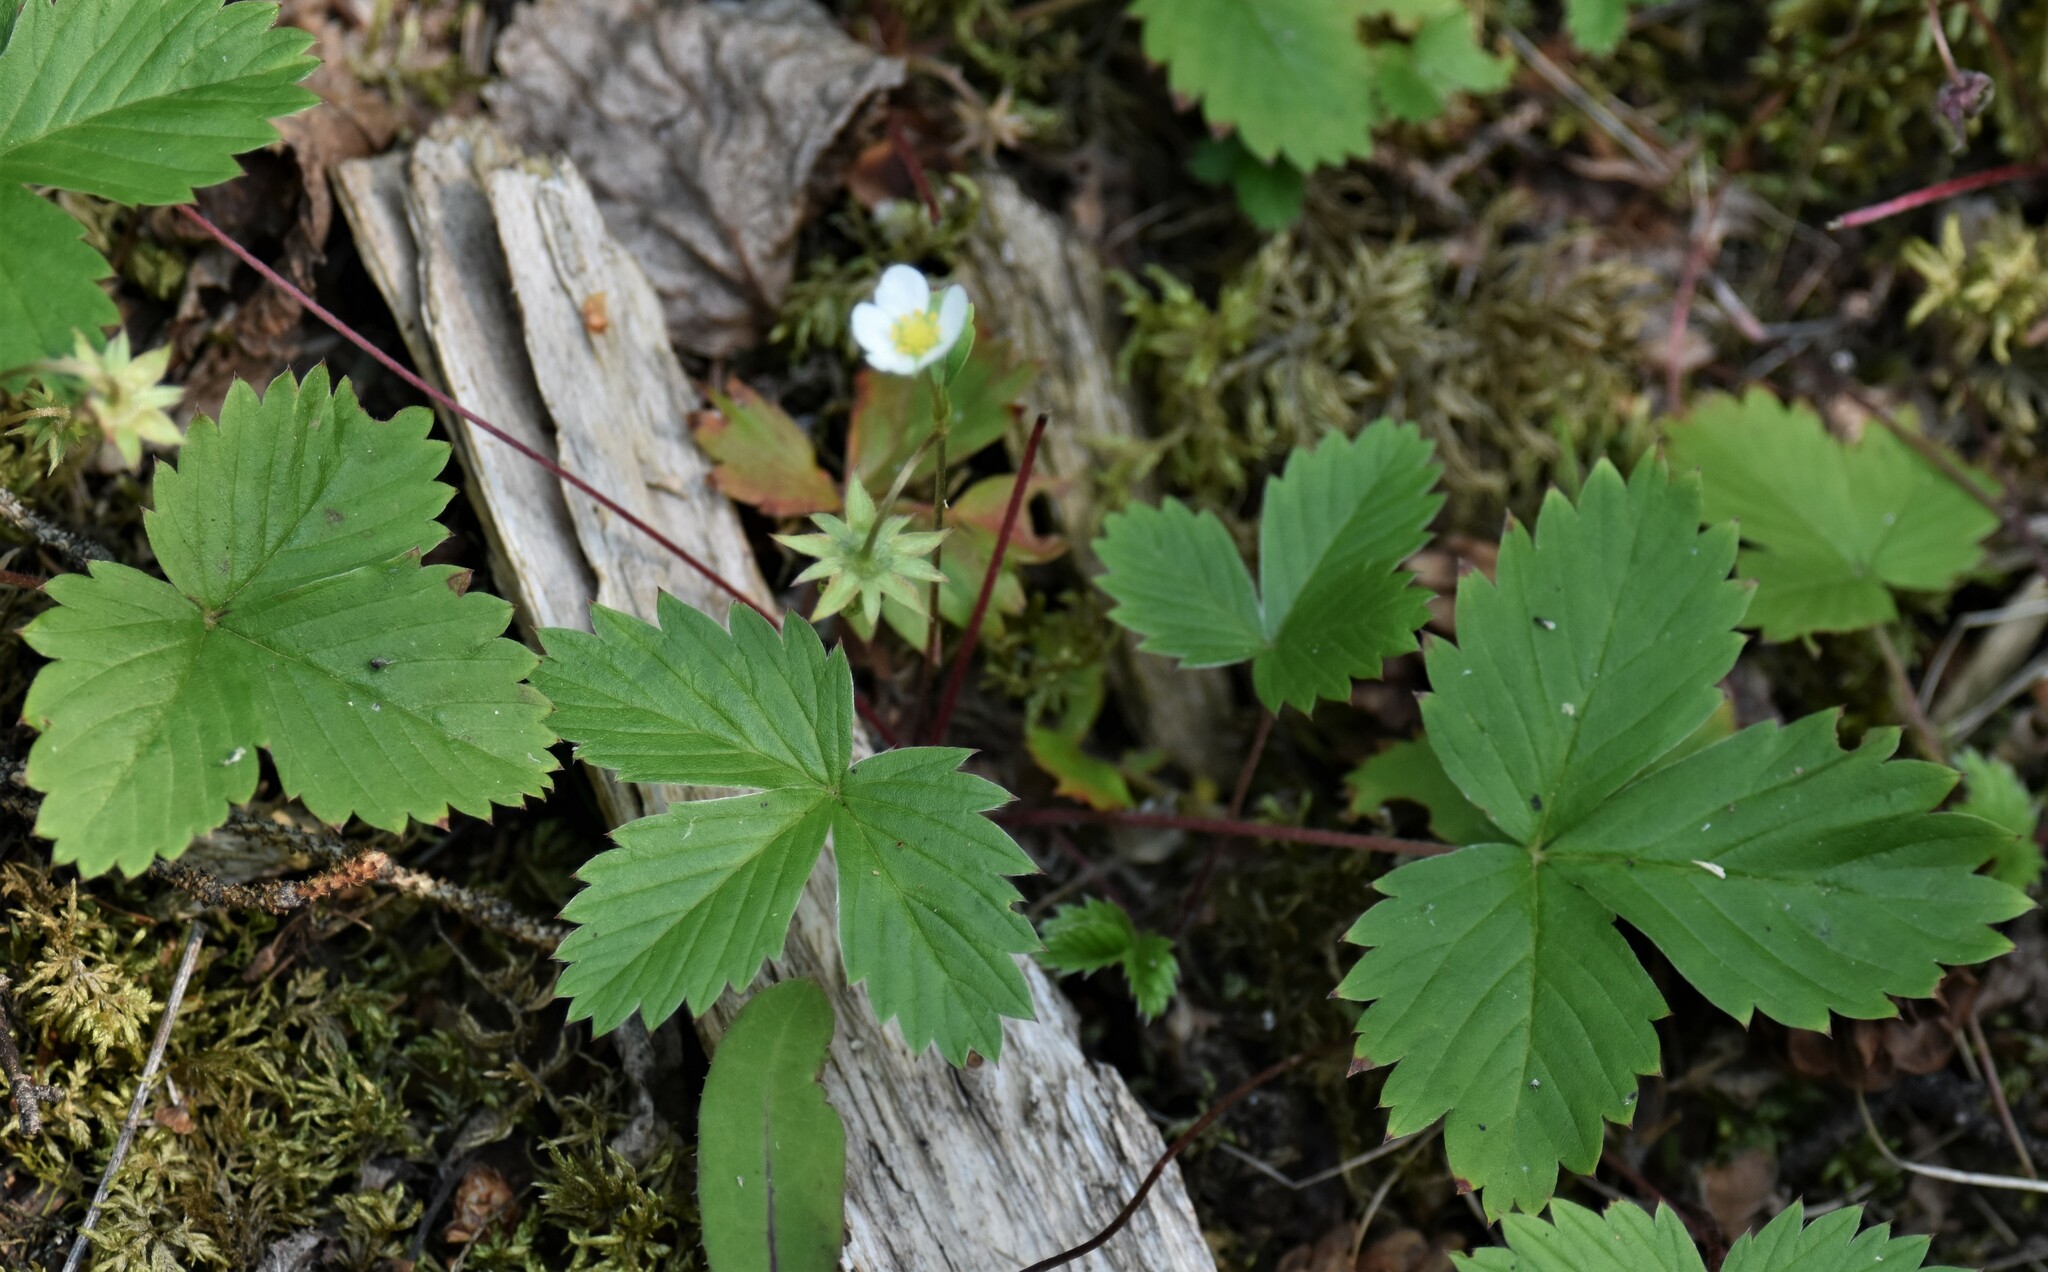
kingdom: Plantae
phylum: Tracheophyta
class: Magnoliopsida
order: Rosales
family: Rosaceae
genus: Fragaria
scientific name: Fragaria vesca
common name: Wild strawberry
